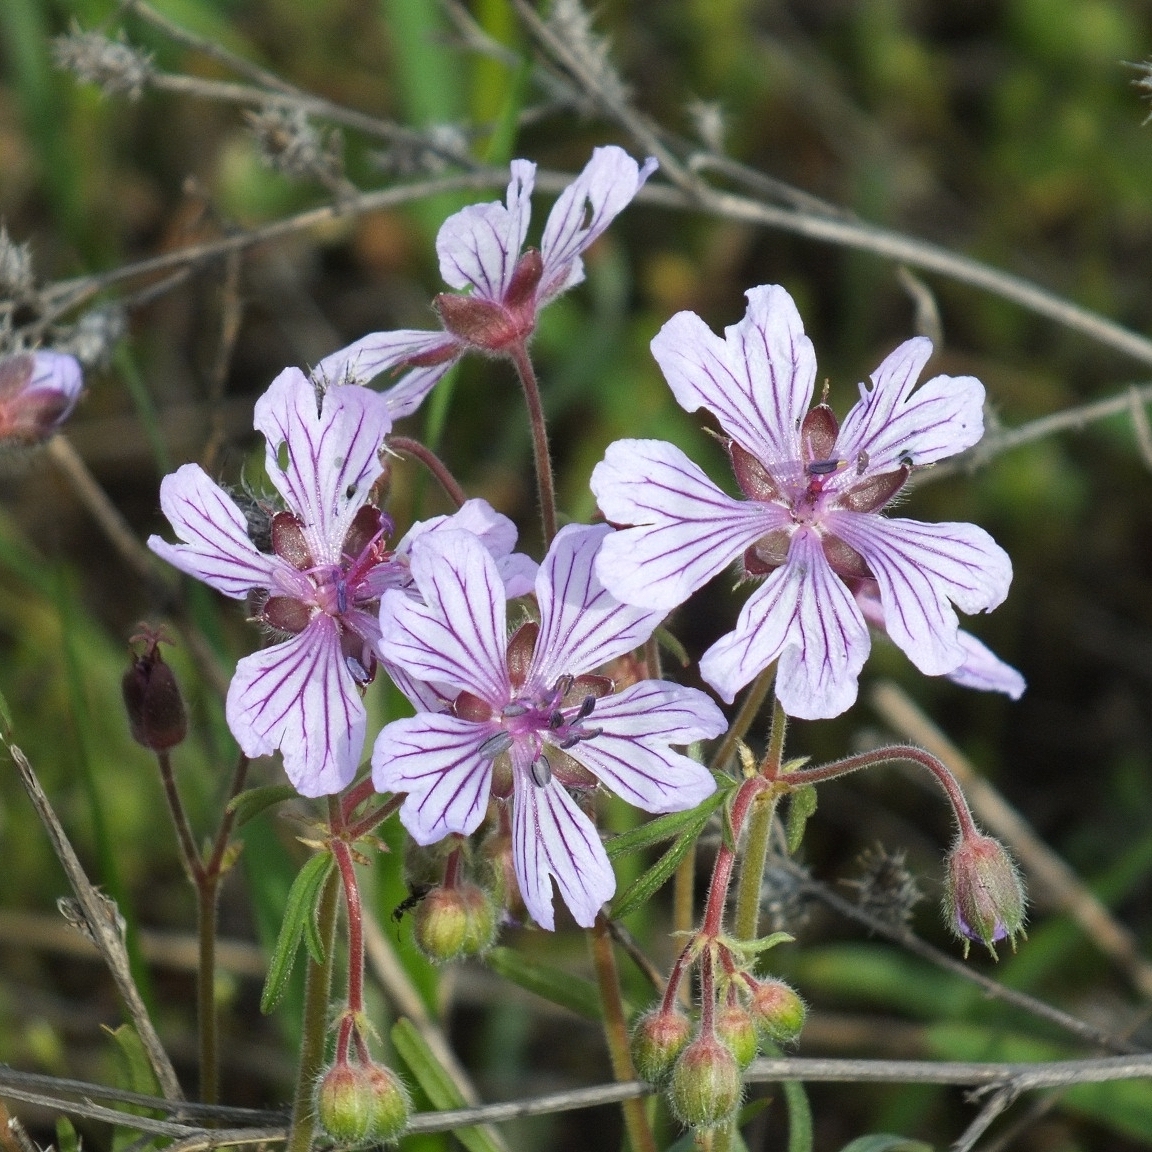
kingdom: Plantae
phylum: Tracheophyta
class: Magnoliopsida
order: Geraniales
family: Geraniaceae
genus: Geranium
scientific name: Geranium linearilobum
